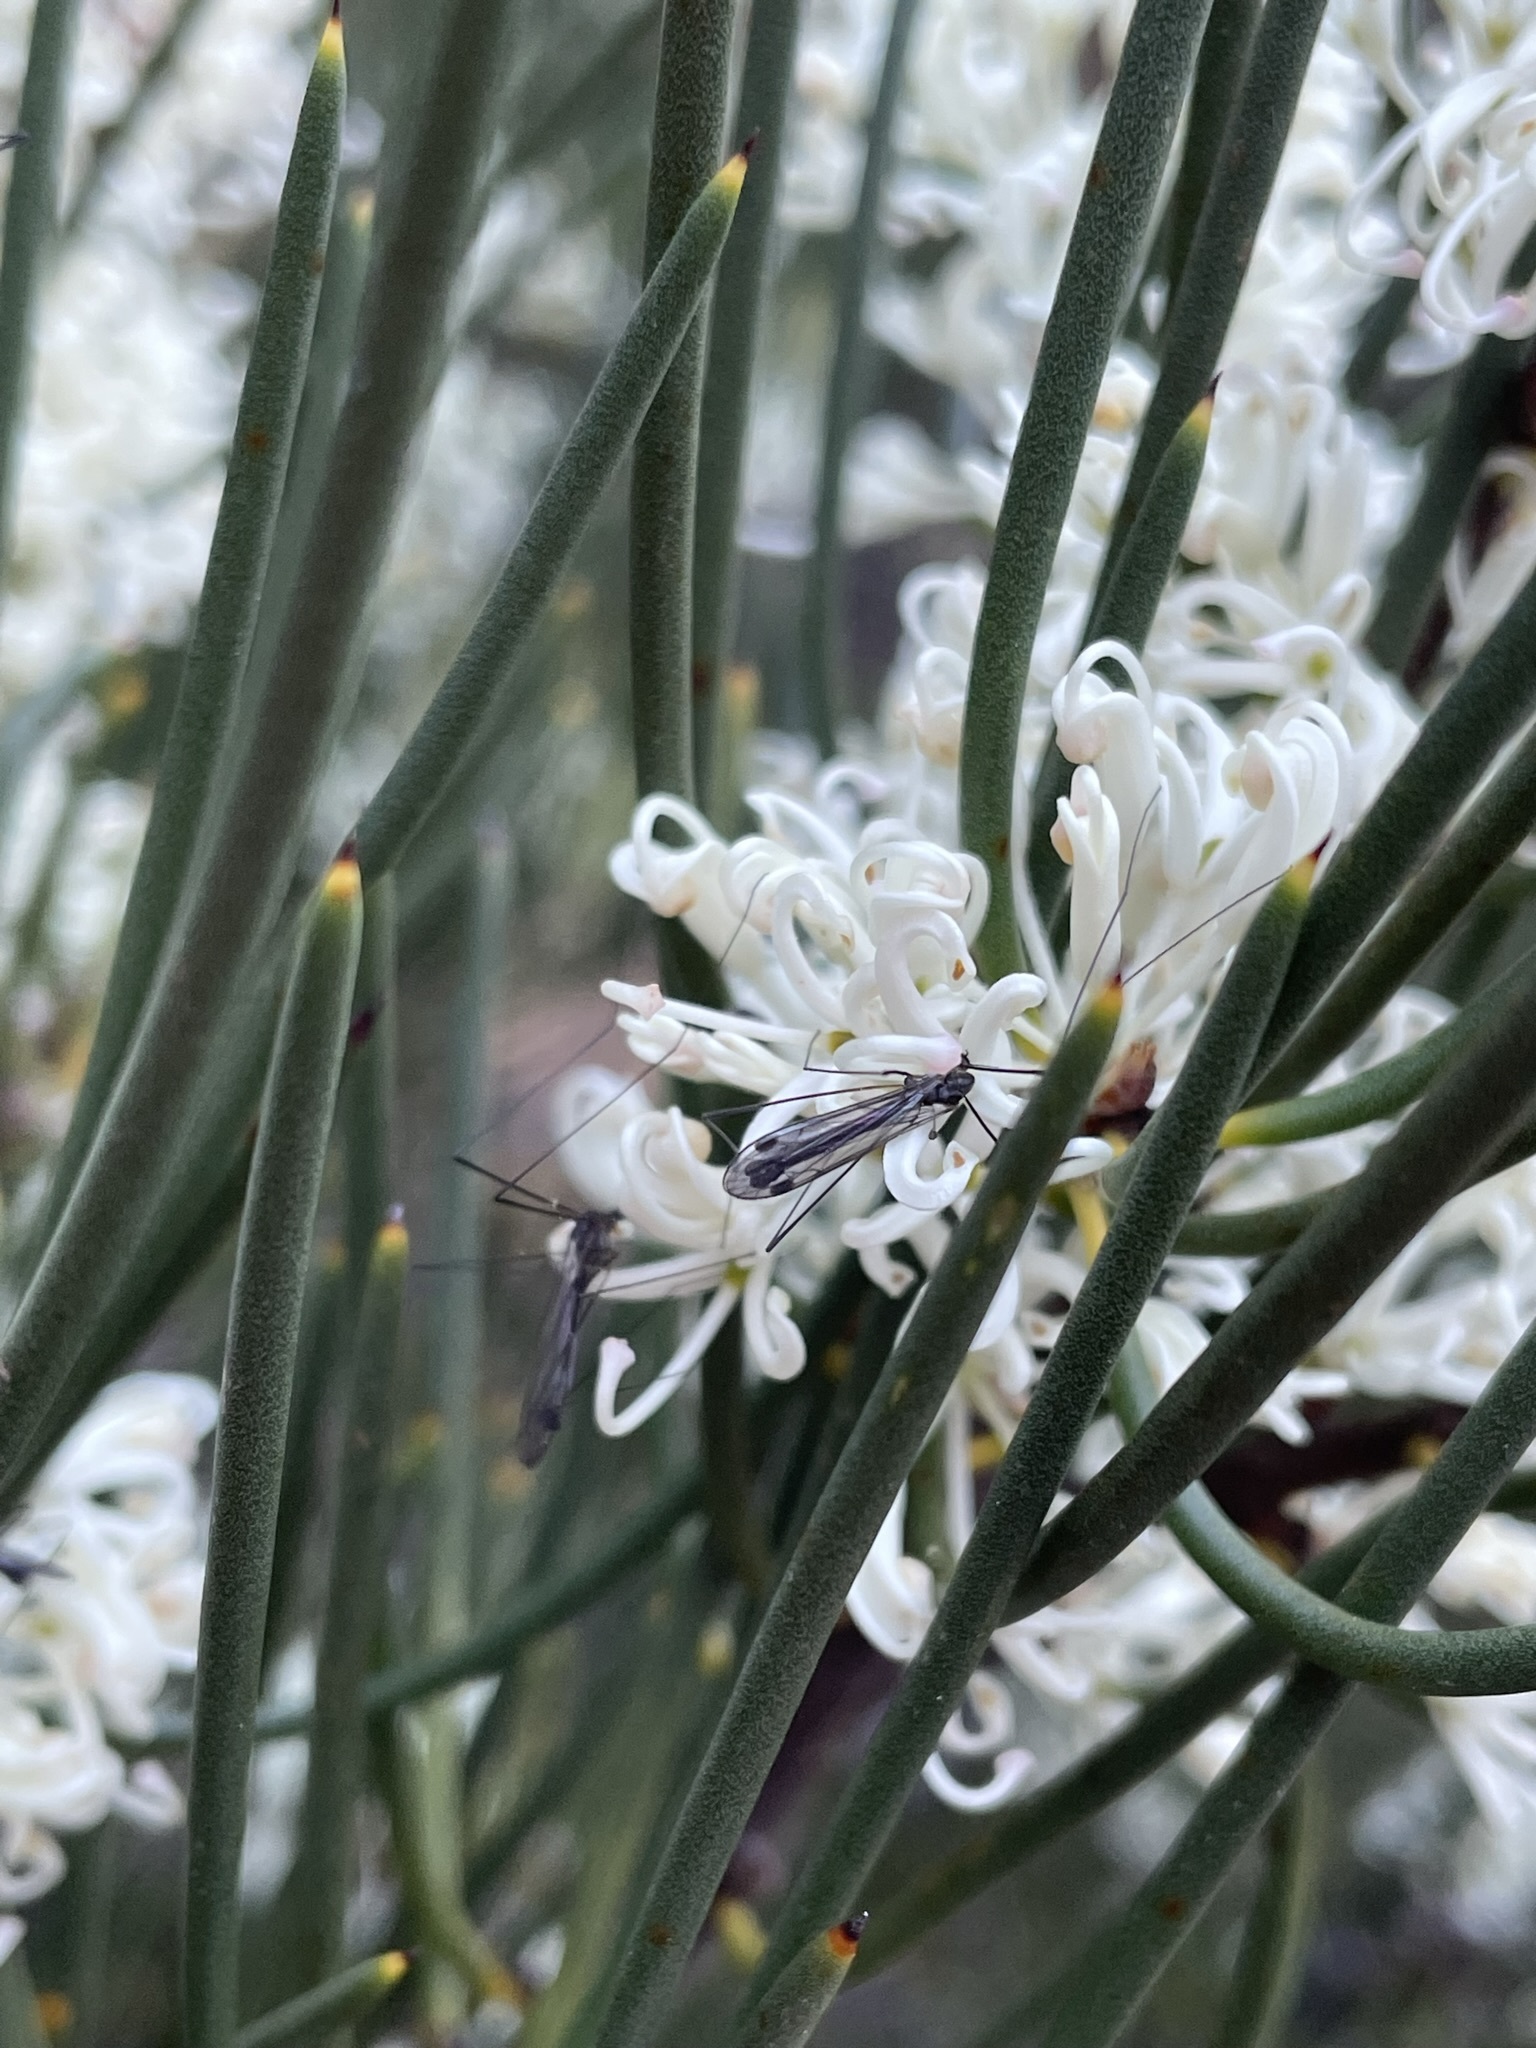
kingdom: Plantae
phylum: Tracheophyta
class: Magnoliopsida
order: Proteales
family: Proteaceae
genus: Hakea
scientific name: Hakea lissosperma
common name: Mountain needlewood
